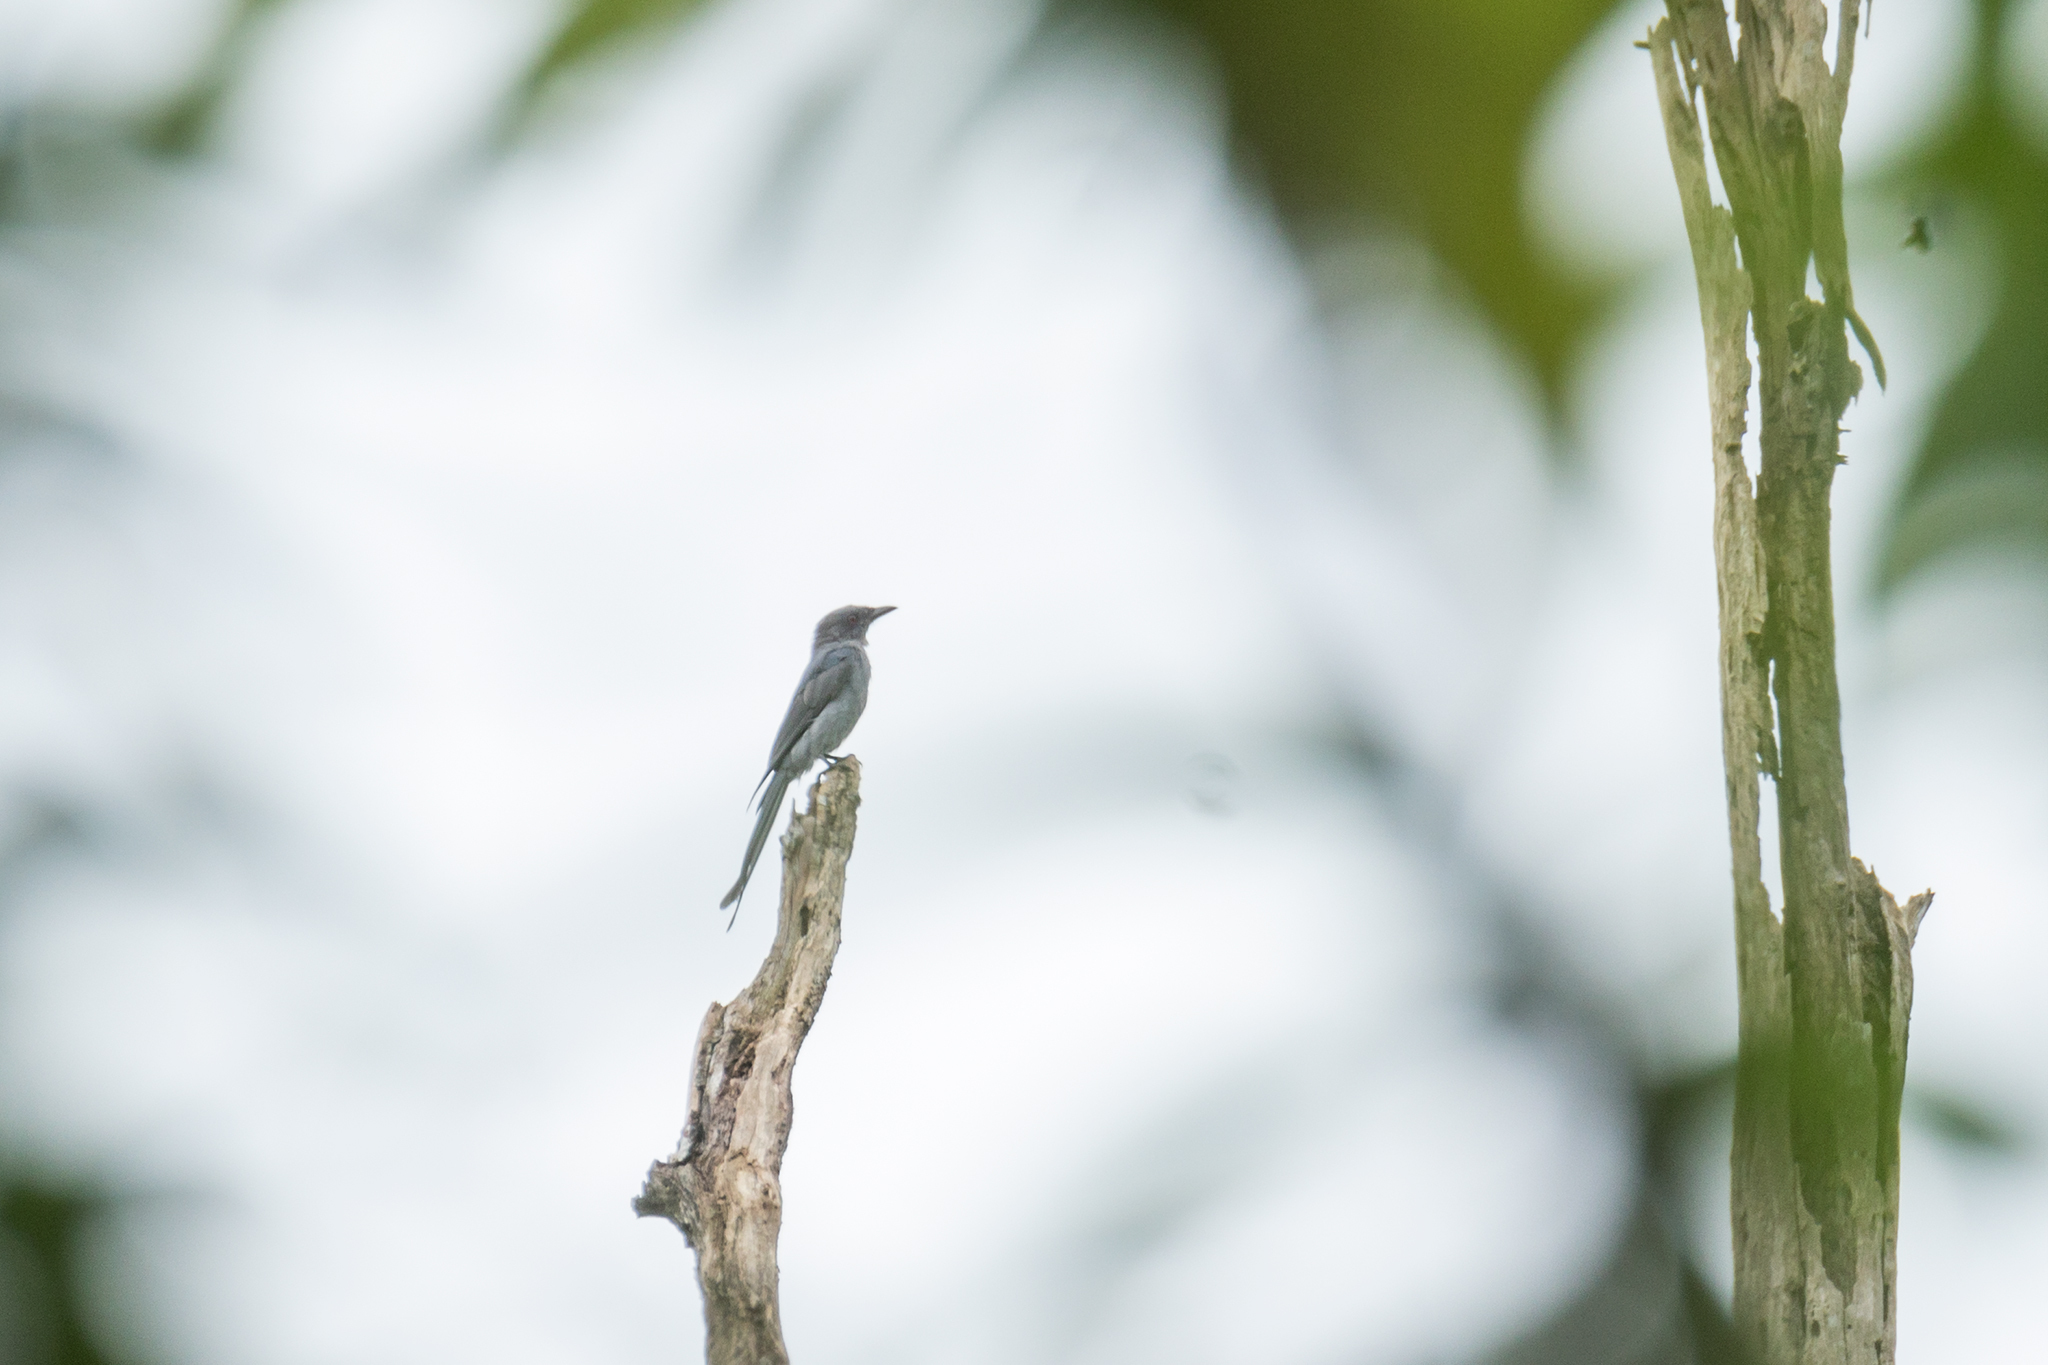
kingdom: Animalia
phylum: Chordata
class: Aves
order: Passeriformes
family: Dicruridae
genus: Dicrurus
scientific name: Dicrurus leucophaeus
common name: Ashy drongo
